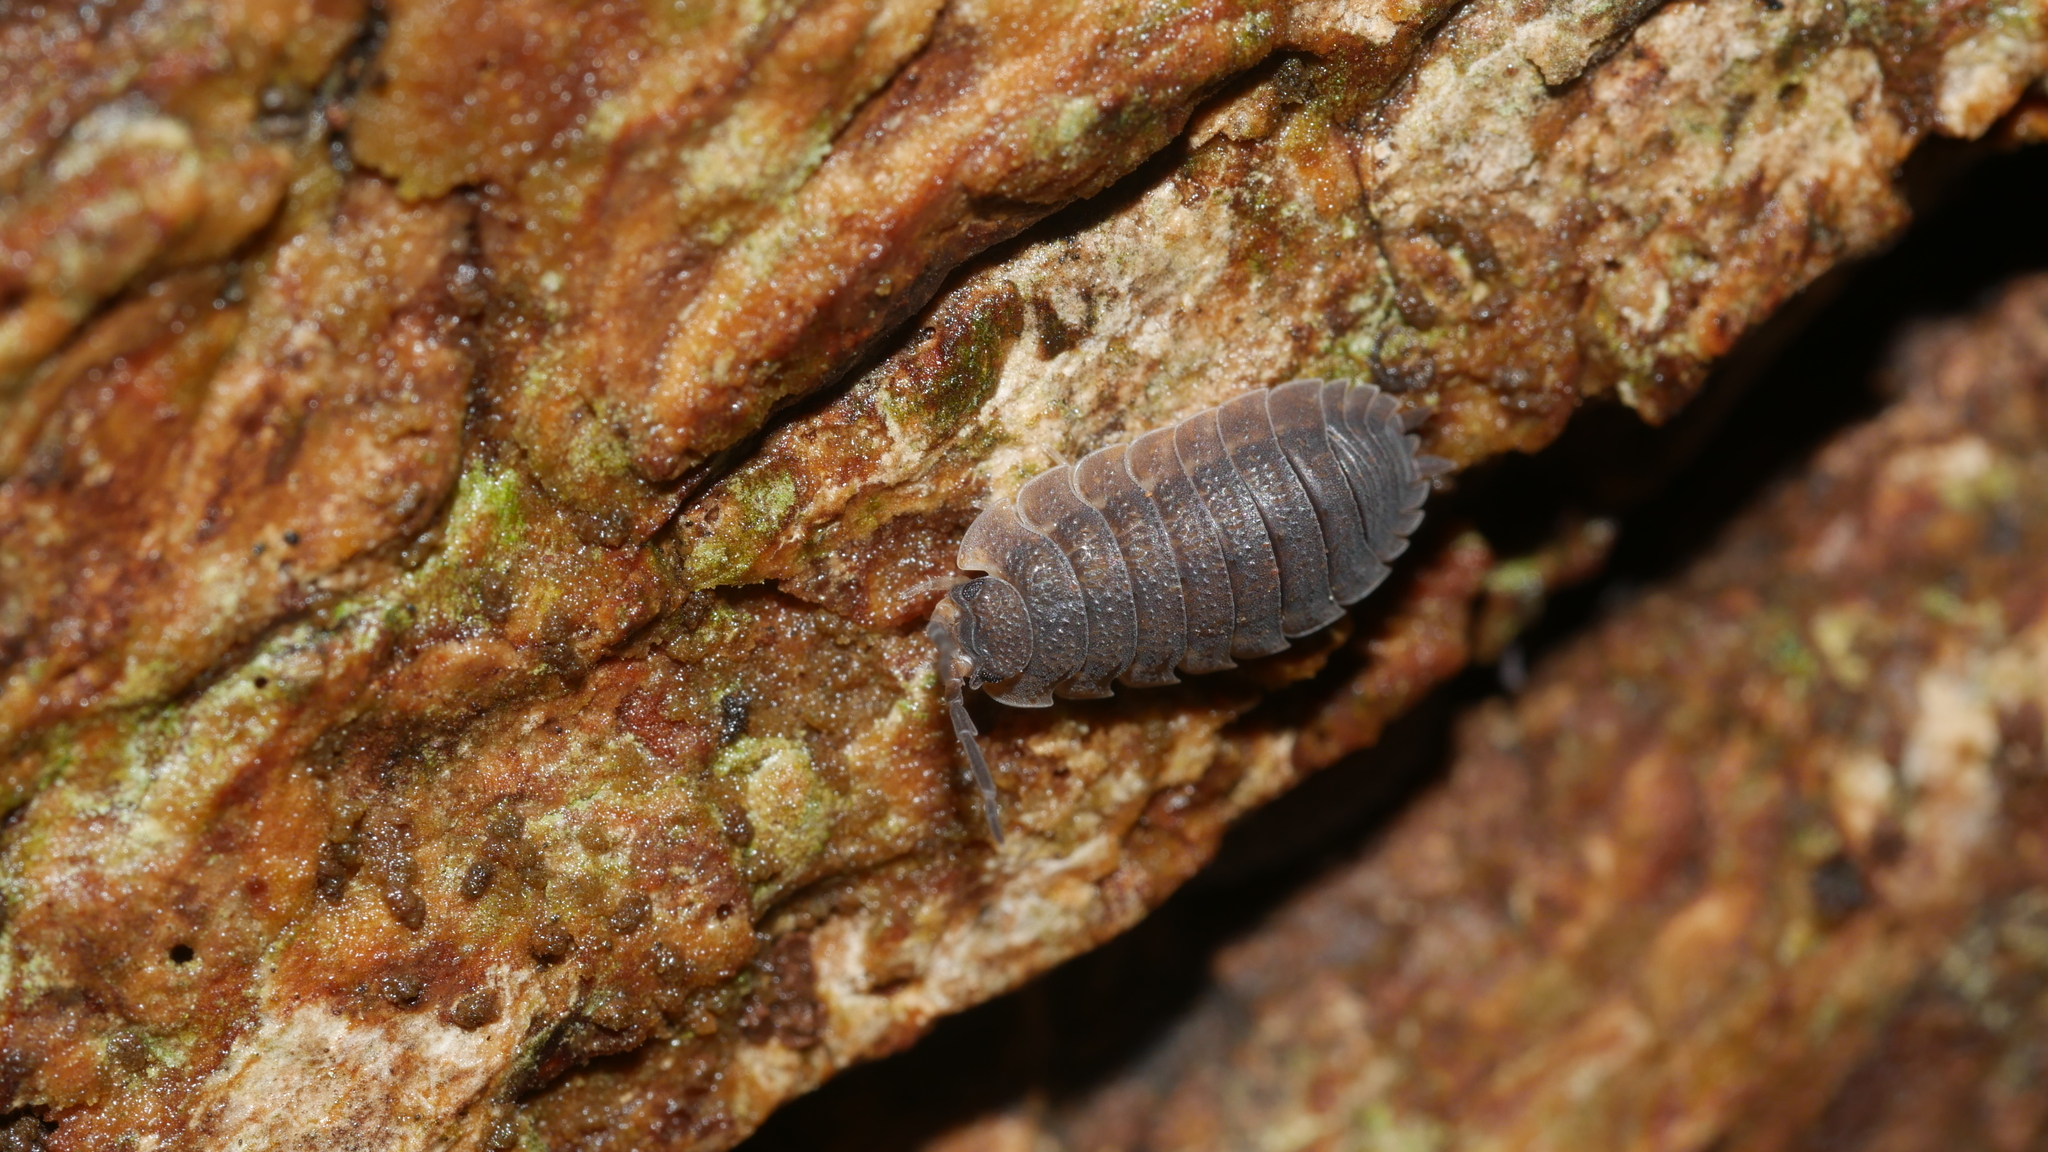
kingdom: Animalia
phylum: Arthropoda
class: Malacostraca
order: Isopoda
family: Porcellionidae
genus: Porcellio
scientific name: Porcellio scaber
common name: Common rough woodlouse
